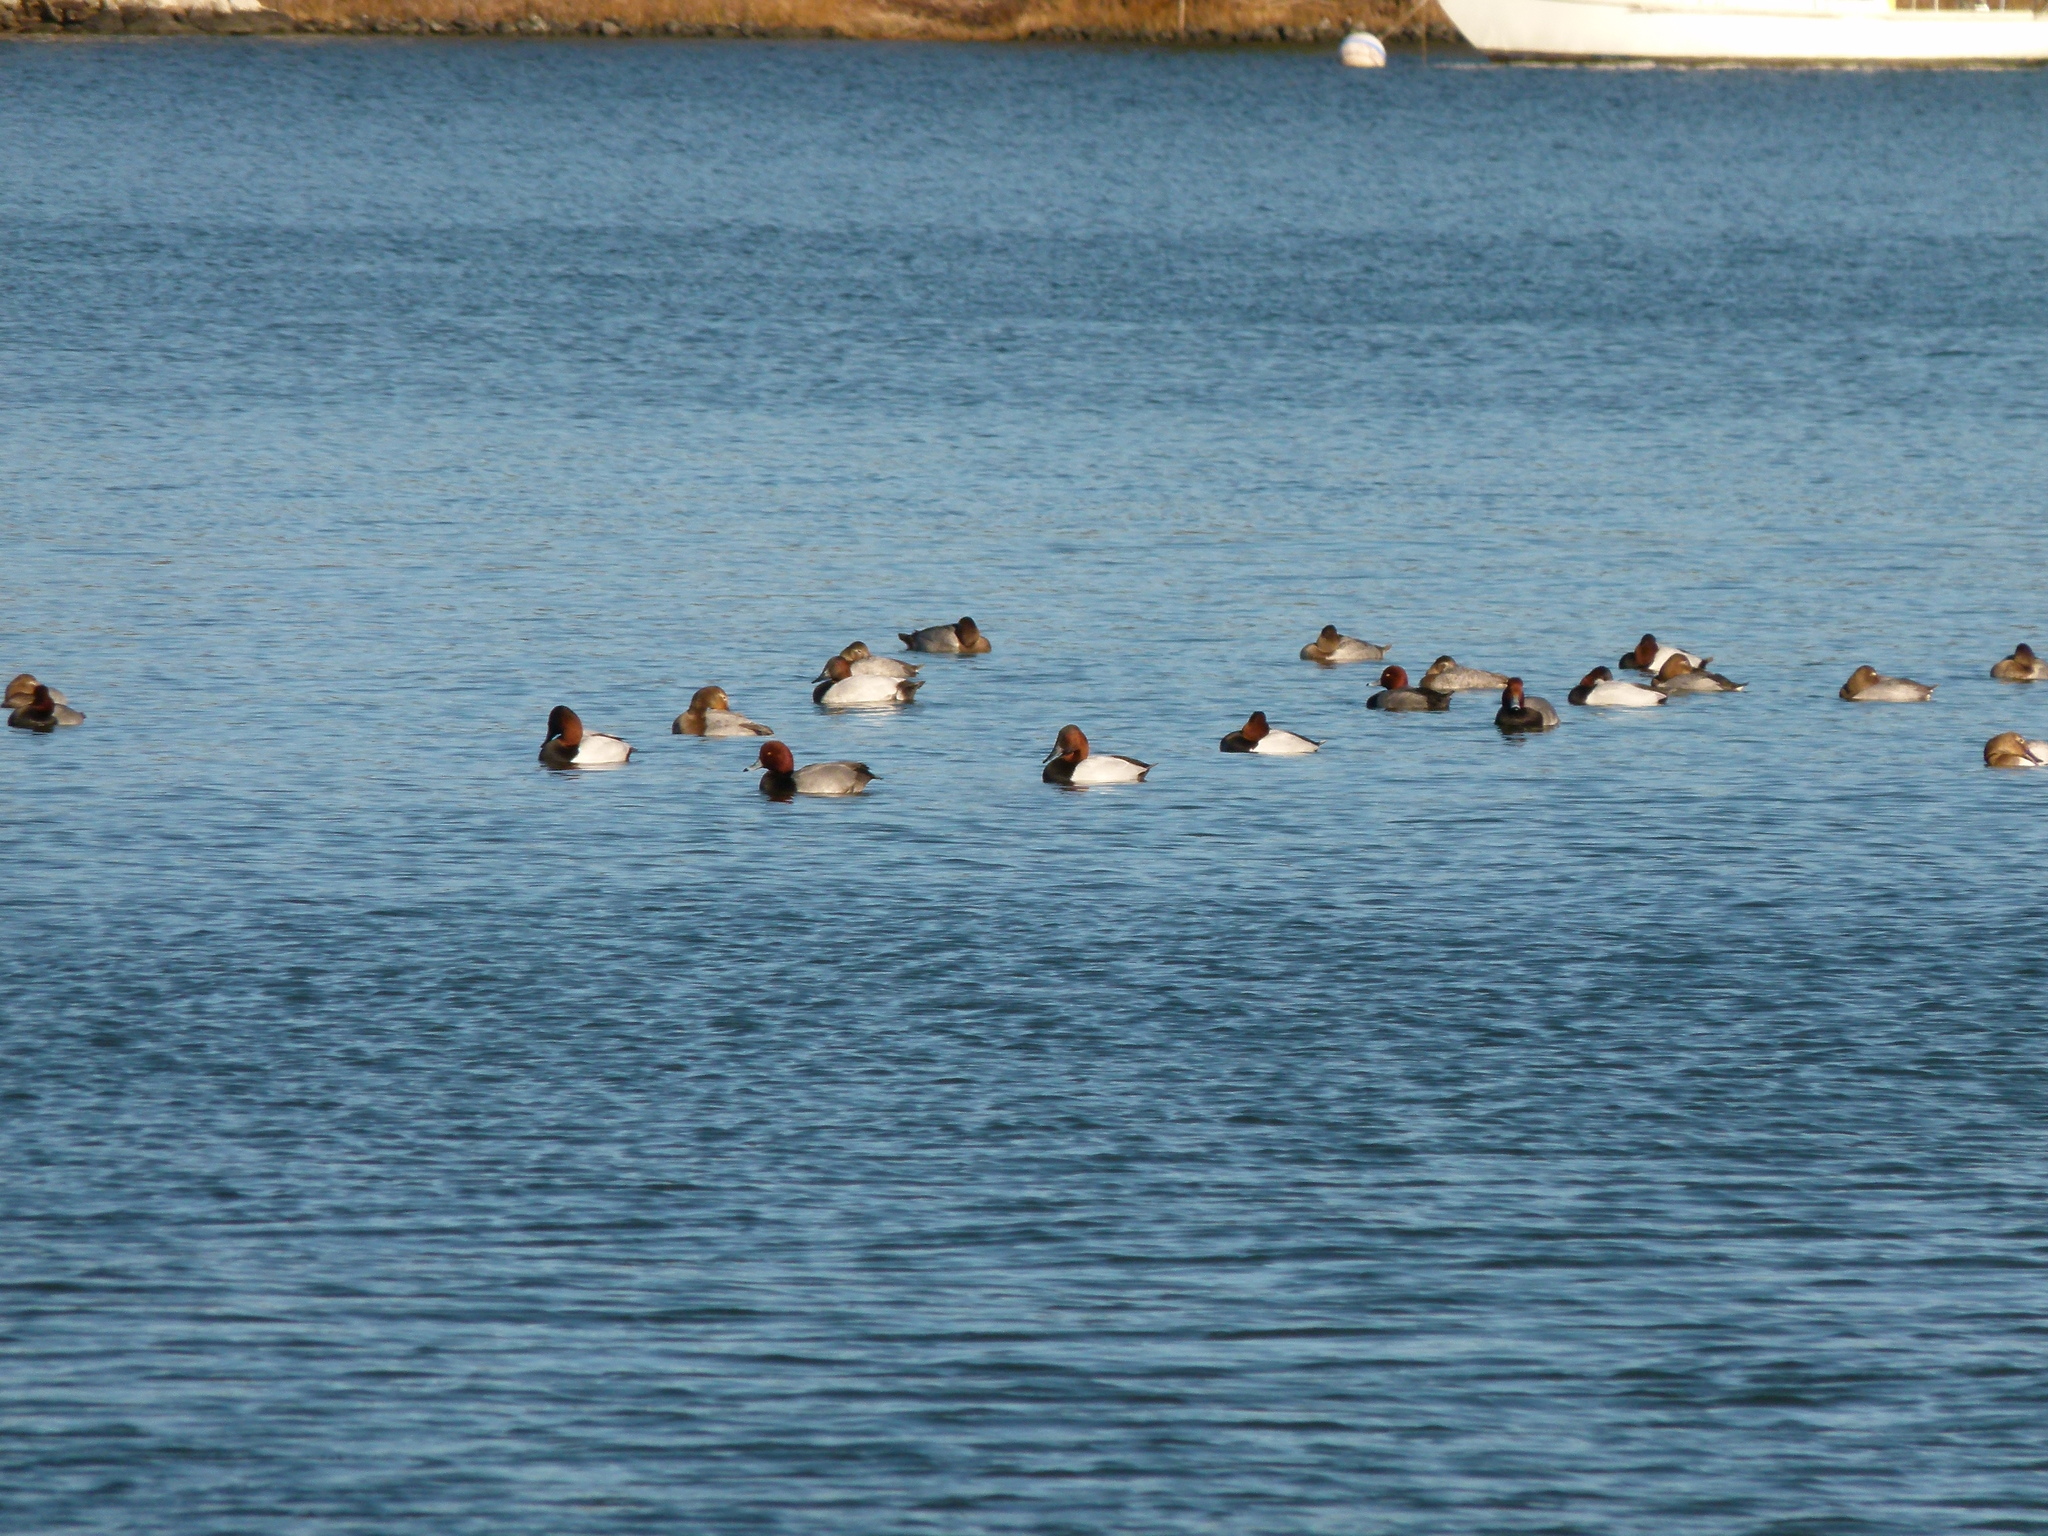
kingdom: Animalia
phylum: Chordata
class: Aves
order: Anseriformes
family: Anatidae
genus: Aythya
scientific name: Aythya americana
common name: Redhead
